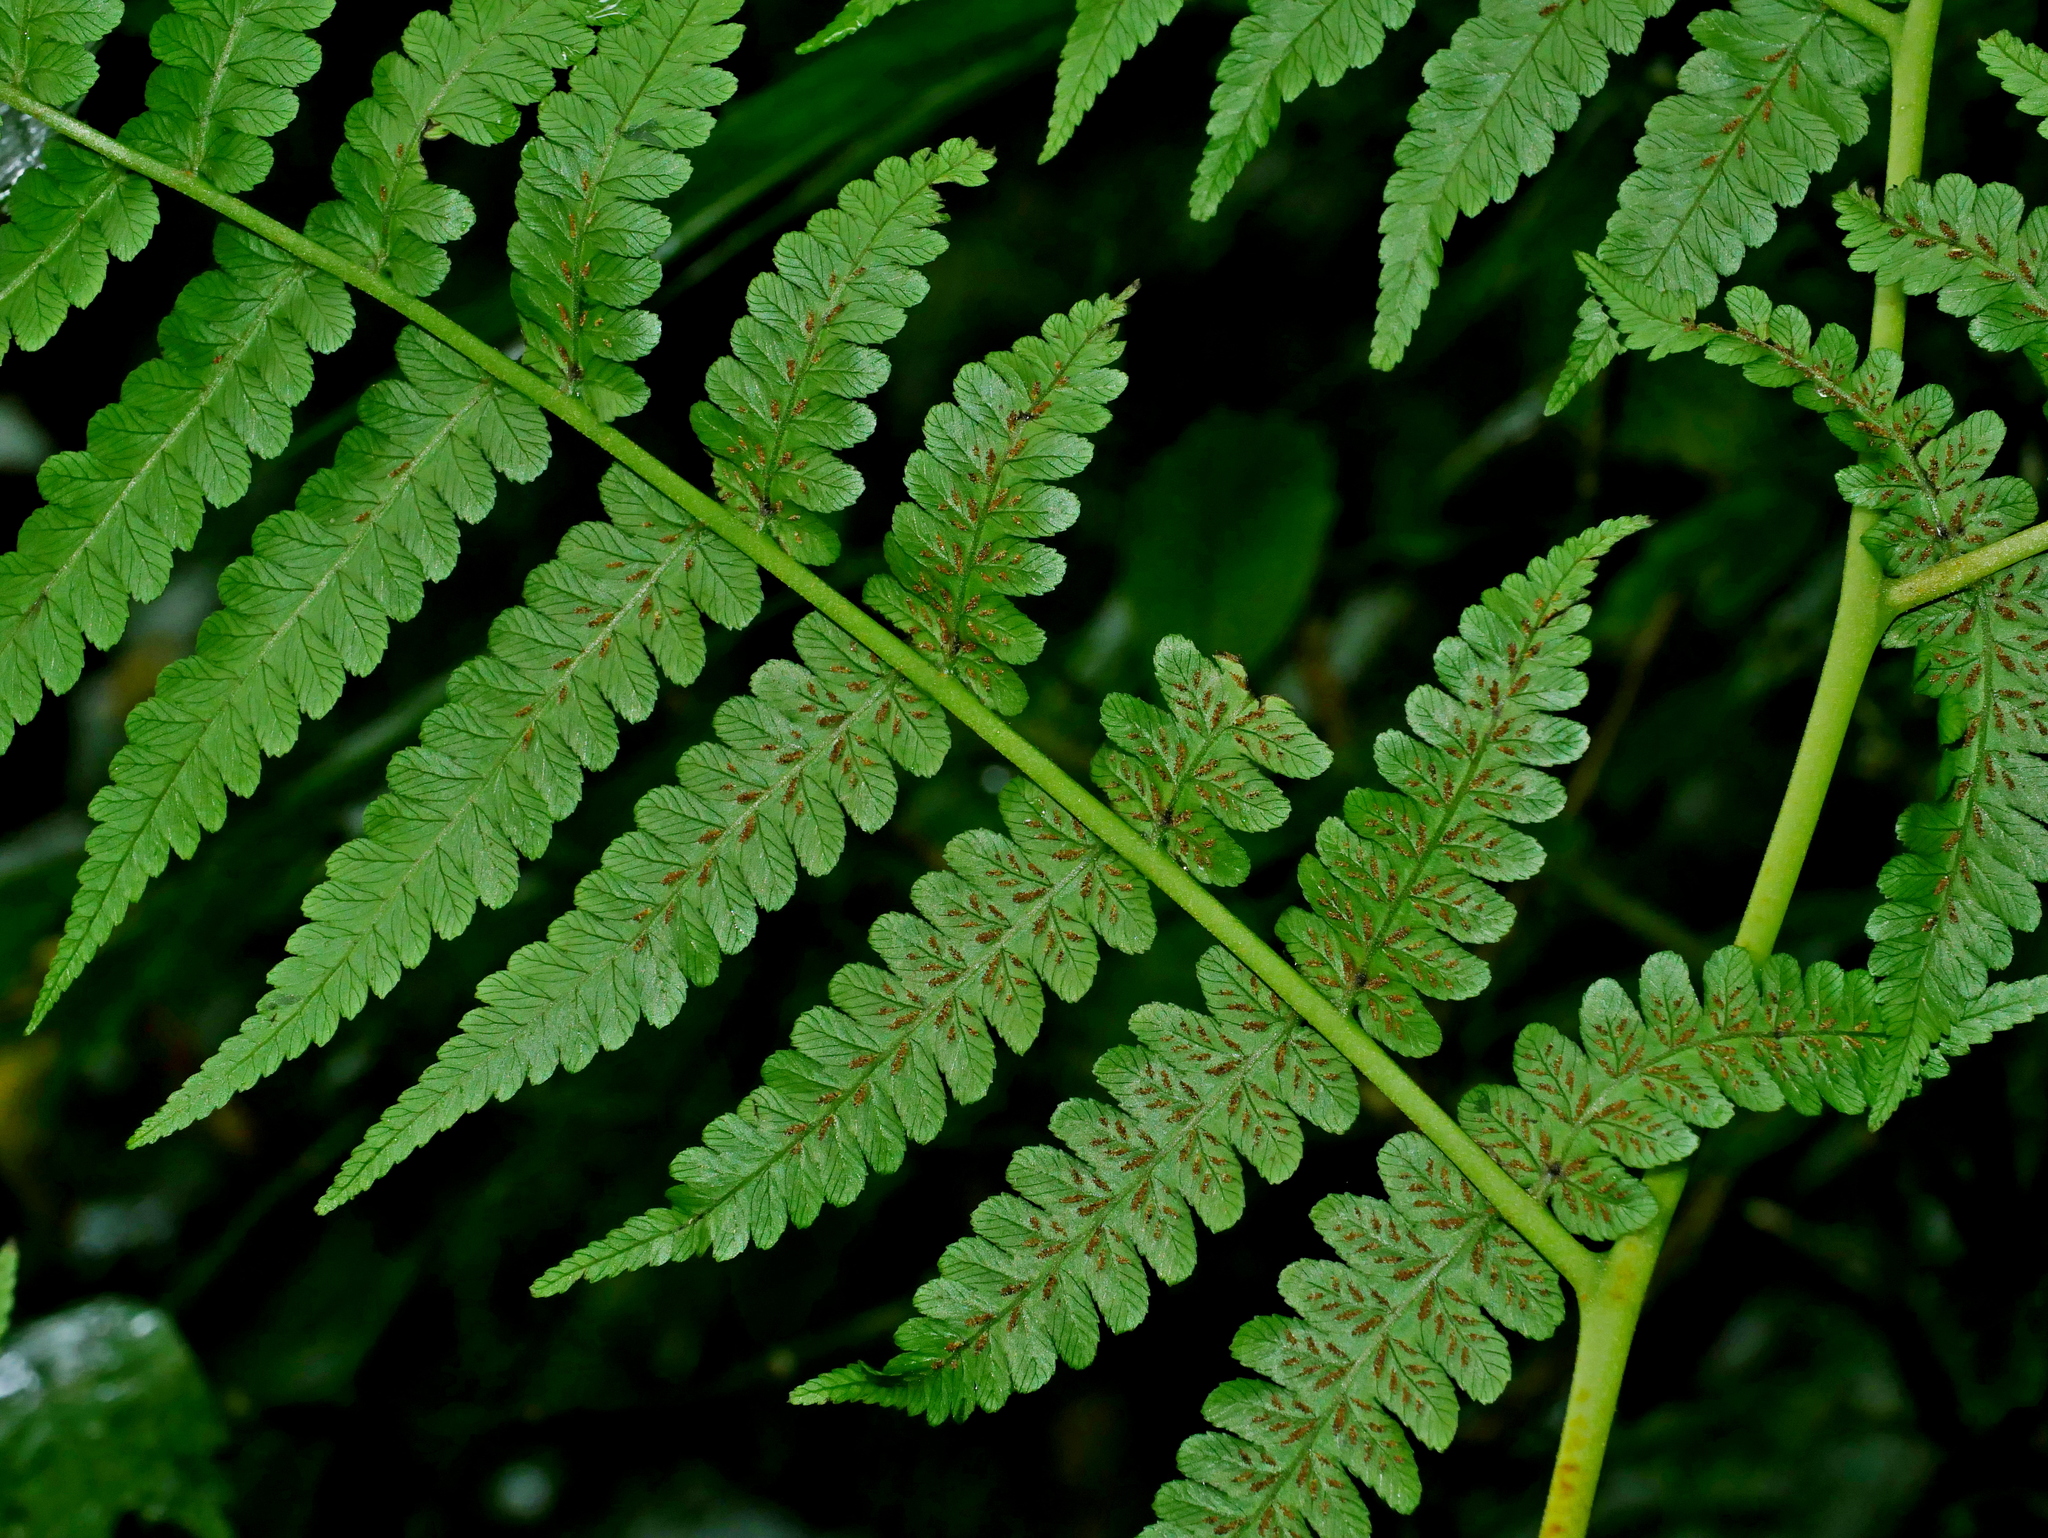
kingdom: Plantae
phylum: Tracheophyta
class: Polypodiopsida
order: Polypodiales
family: Athyriaceae
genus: Diplazium
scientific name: Diplazium pseudodoederleinii
